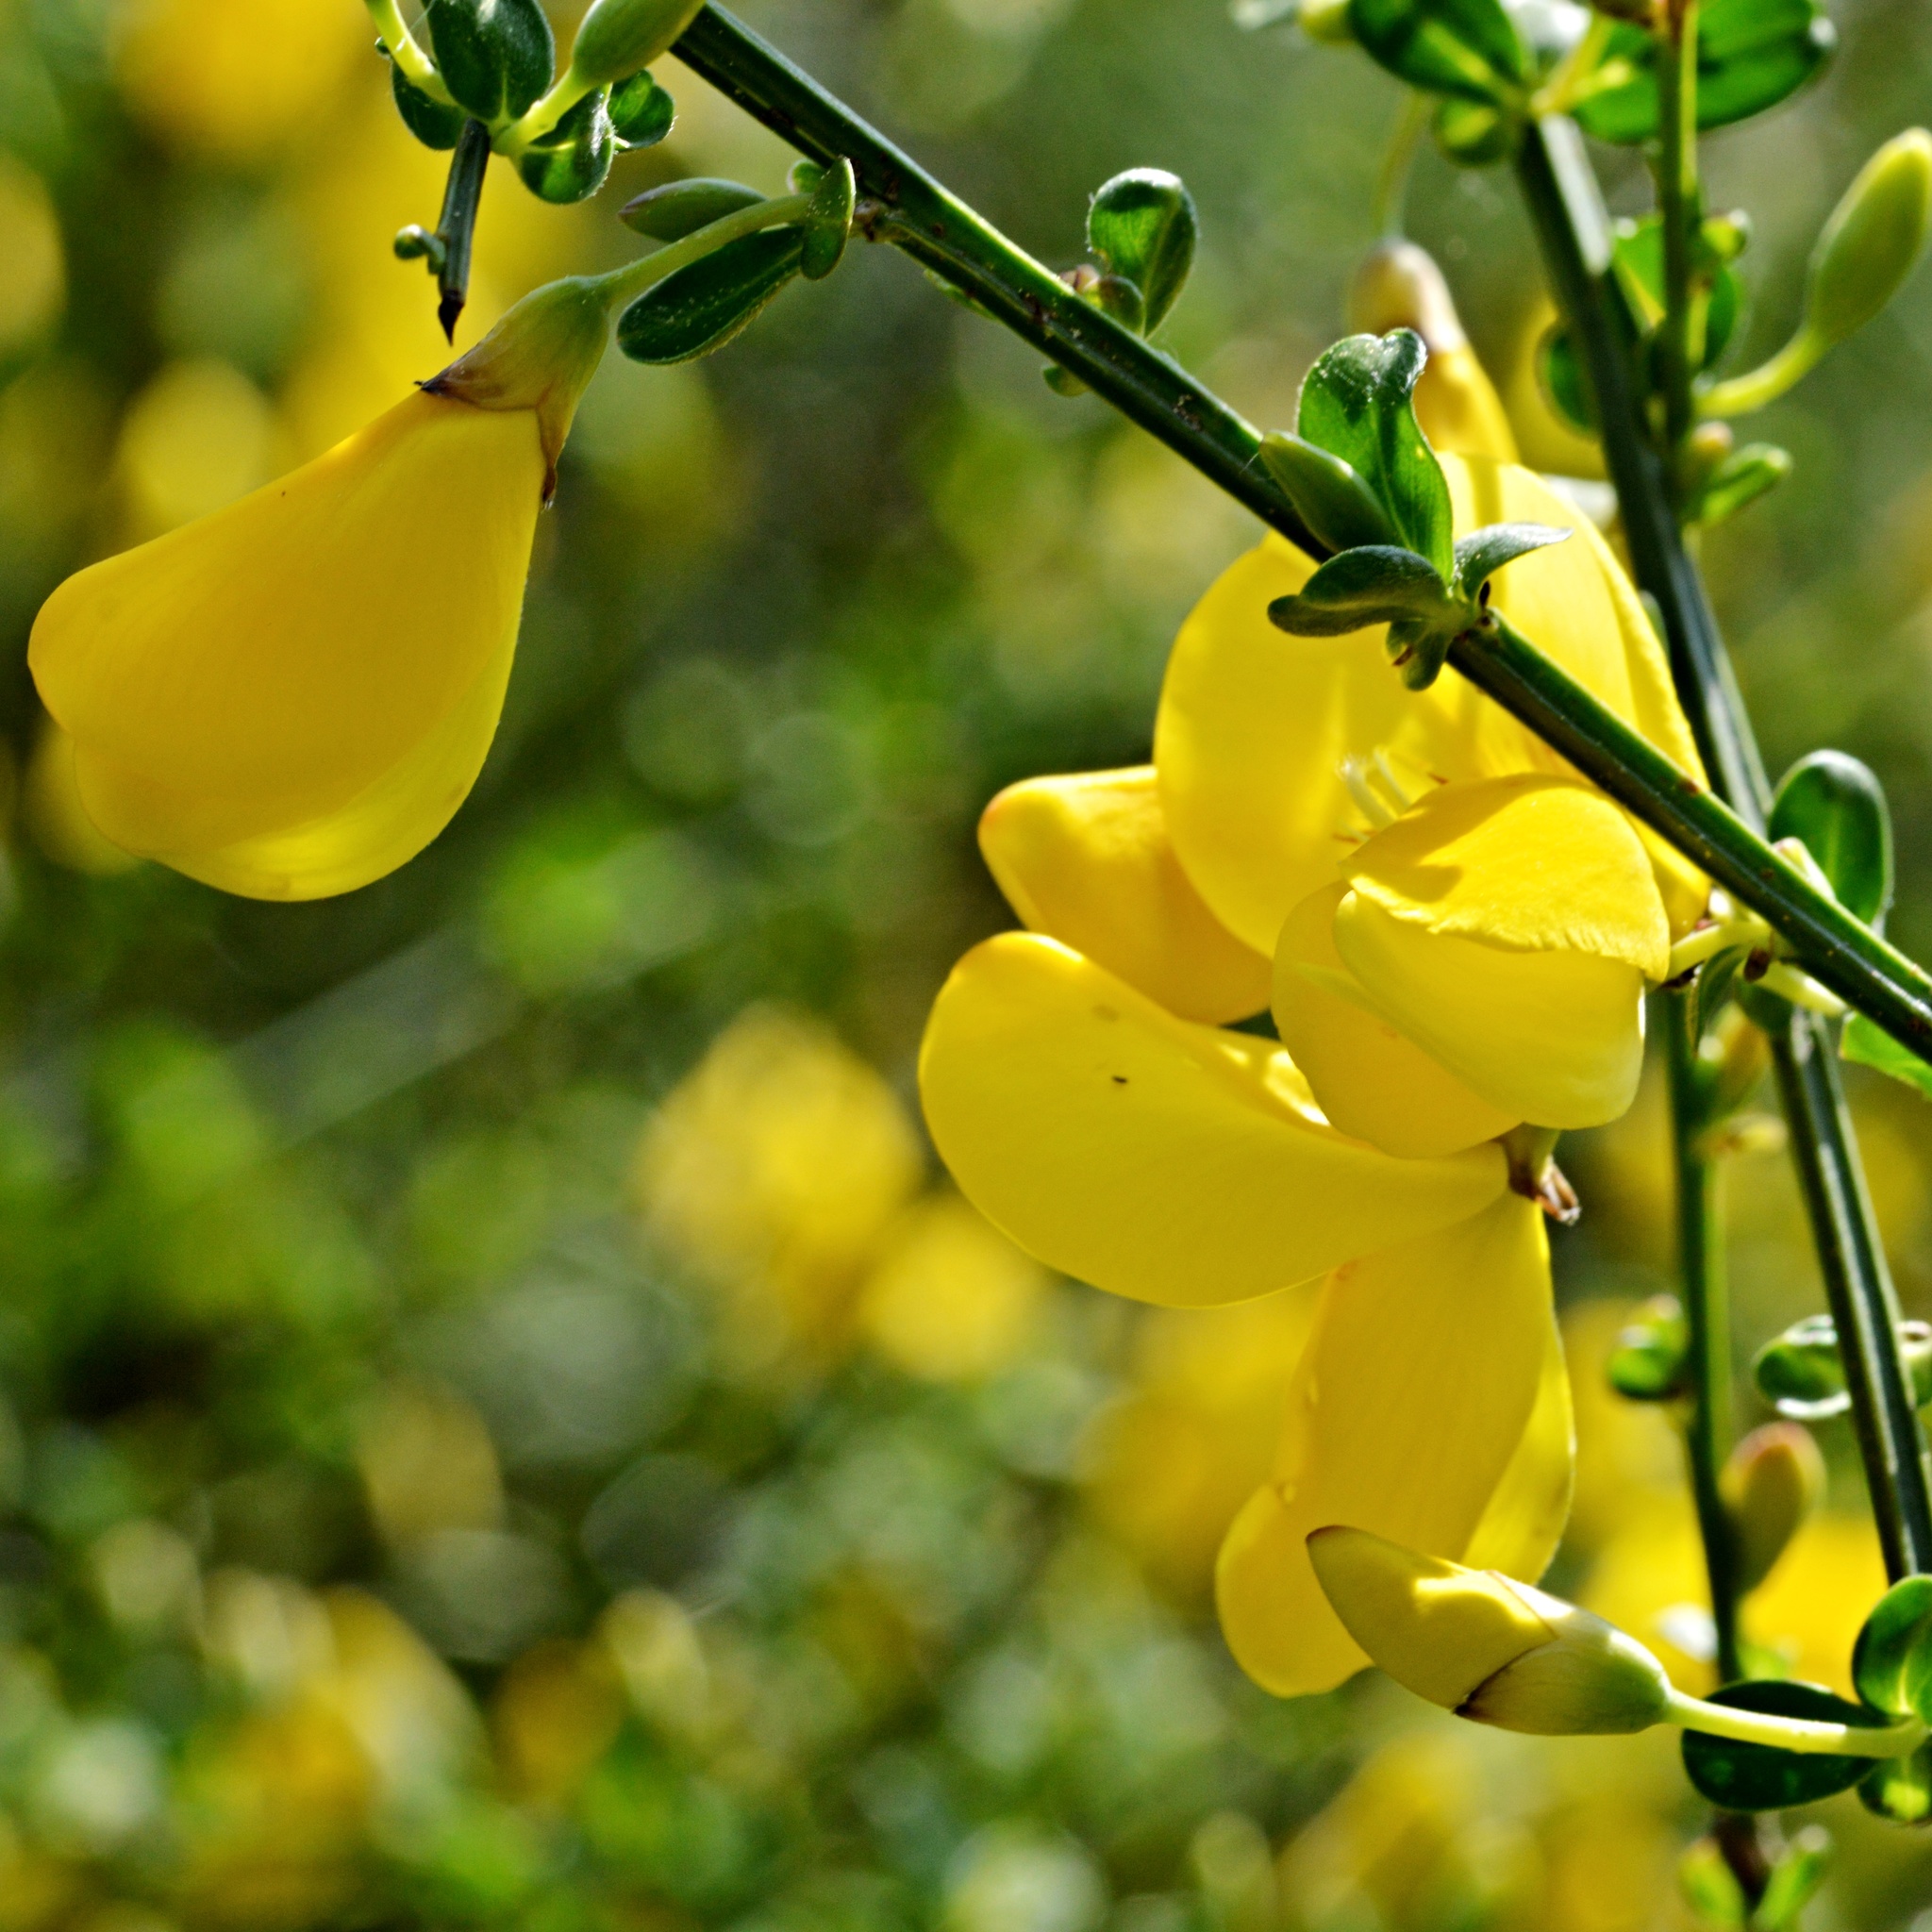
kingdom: Plantae
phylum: Tracheophyta
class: Magnoliopsida
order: Fabales
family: Fabaceae
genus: Cytisus
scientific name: Cytisus scoparius
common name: Scotch broom
